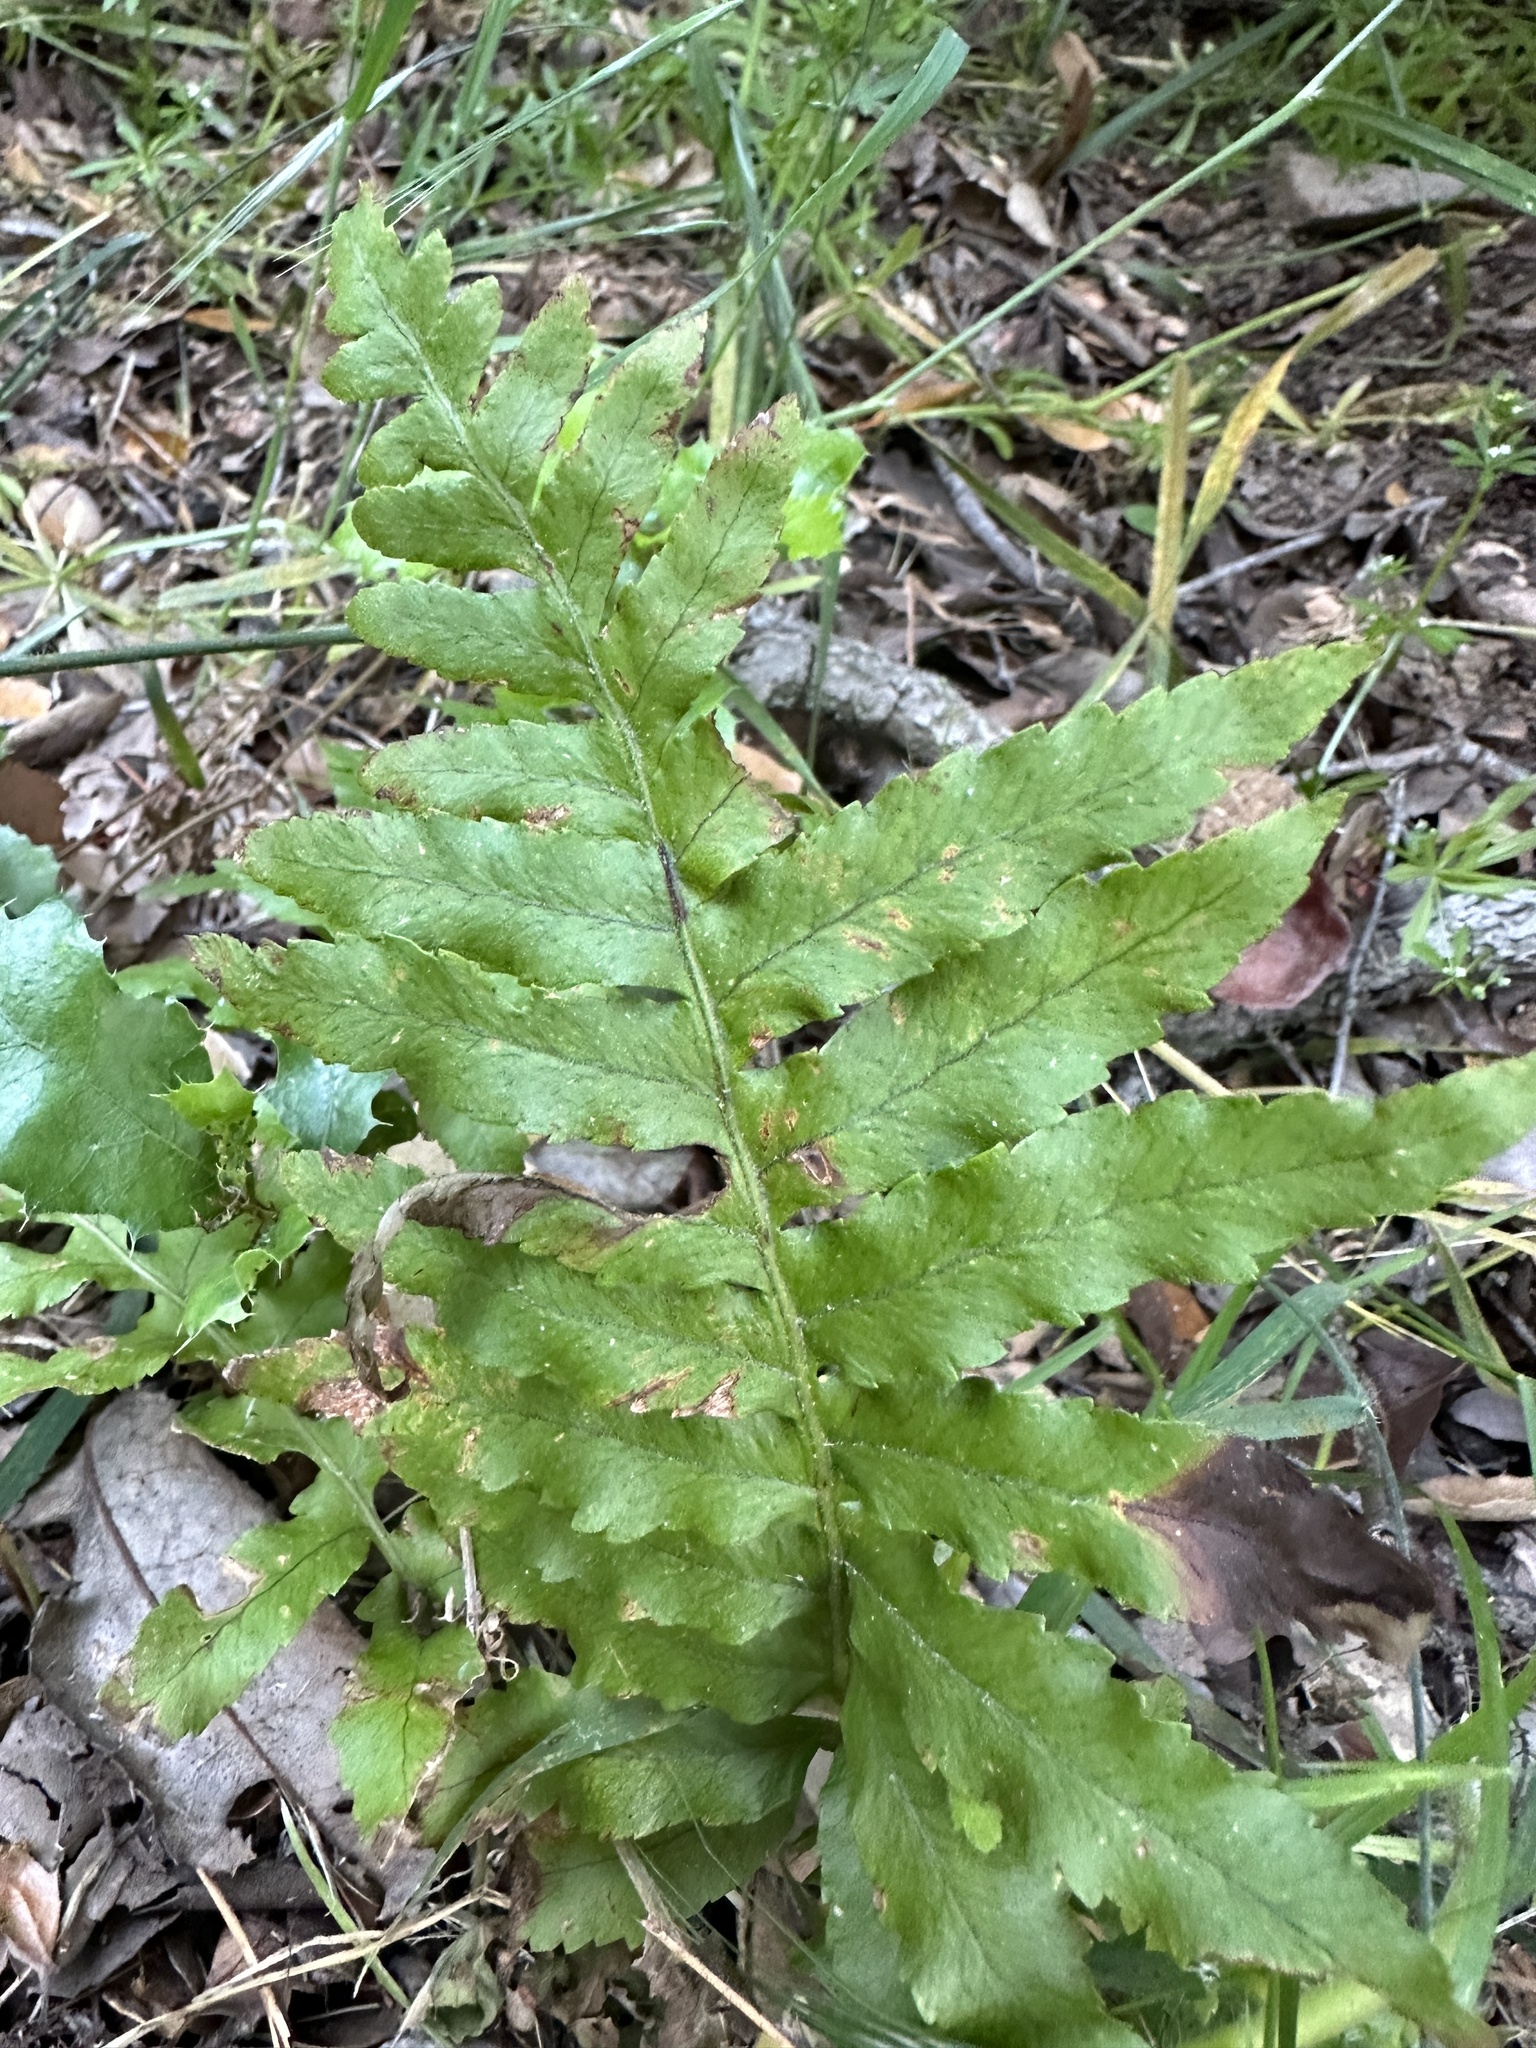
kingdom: Plantae
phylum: Tracheophyta
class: Polypodiopsida
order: Polypodiales
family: Polypodiaceae
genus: Polypodium
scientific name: Polypodium californicum
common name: California polypody
